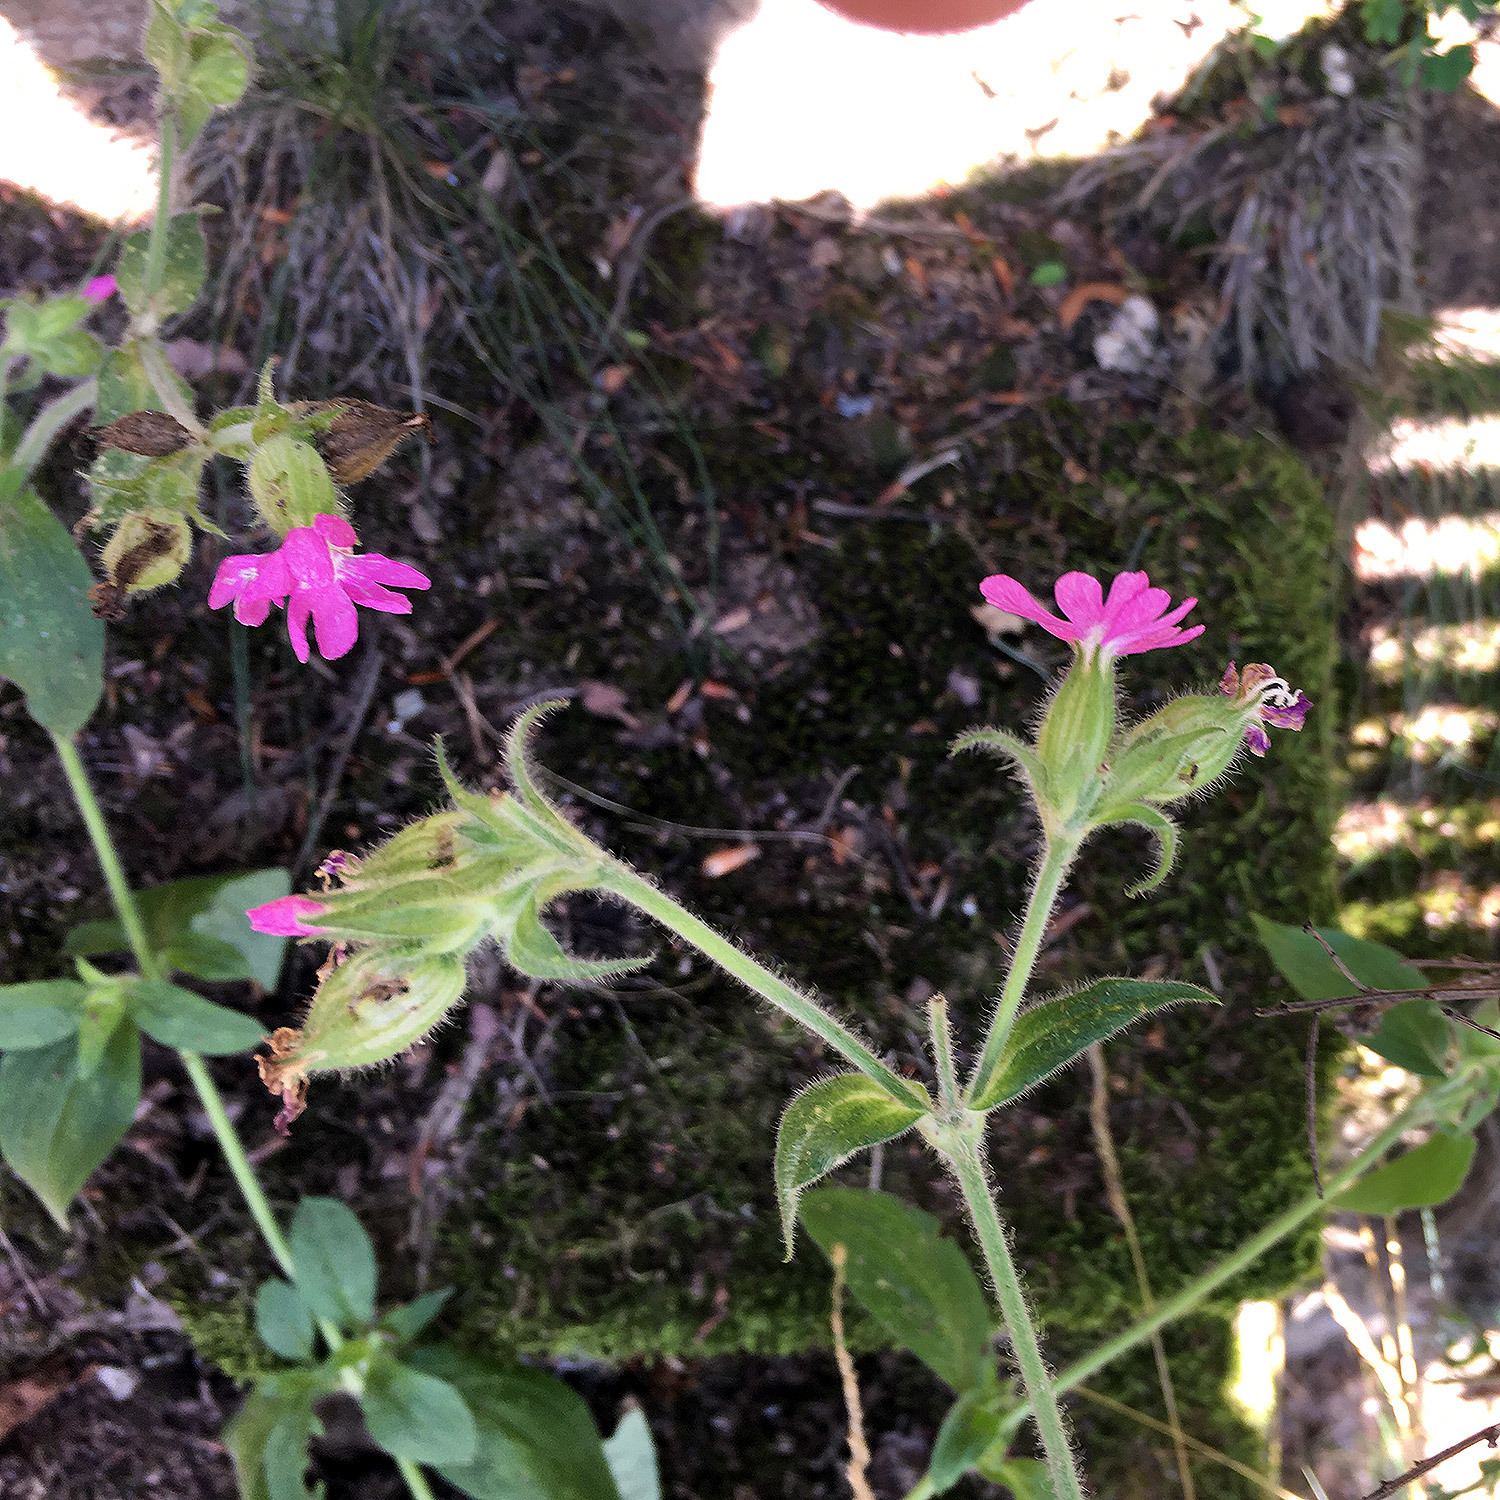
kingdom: Plantae
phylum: Tracheophyta
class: Magnoliopsida
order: Caryophyllales
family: Caryophyllaceae
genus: Silene
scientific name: Silene dioica
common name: Red campion
